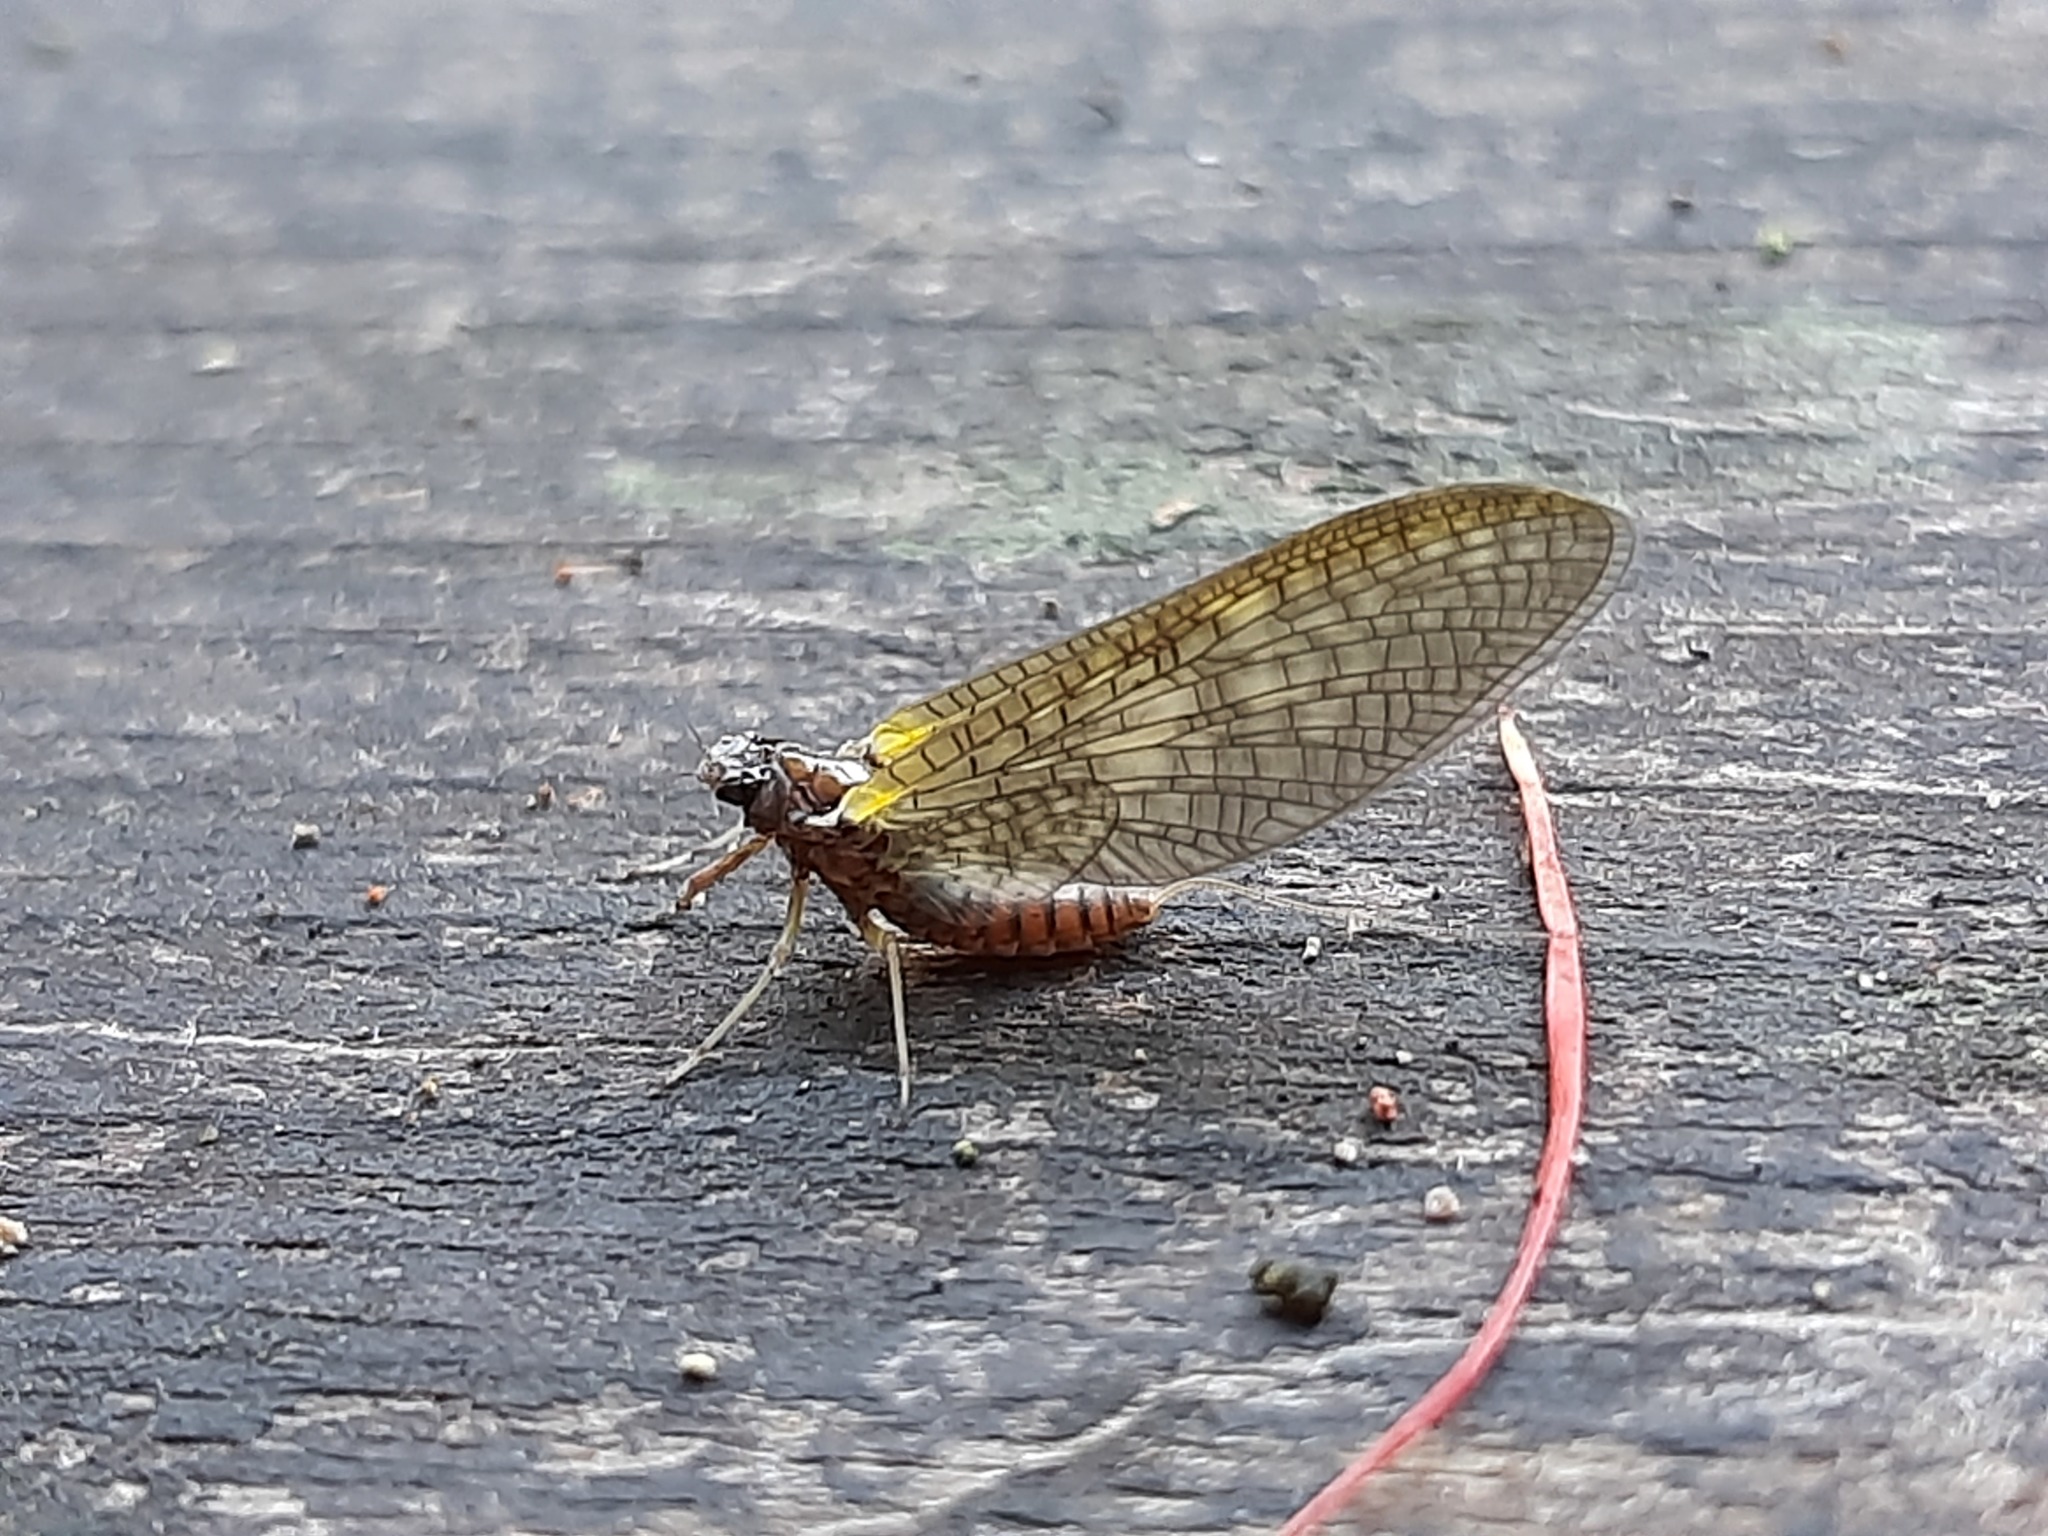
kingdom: Animalia
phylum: Arthropoda
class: Insecta
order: Ephemeroptera
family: Coloburiscidae
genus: Coloburiscus
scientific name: Coloburiscus humeralis
